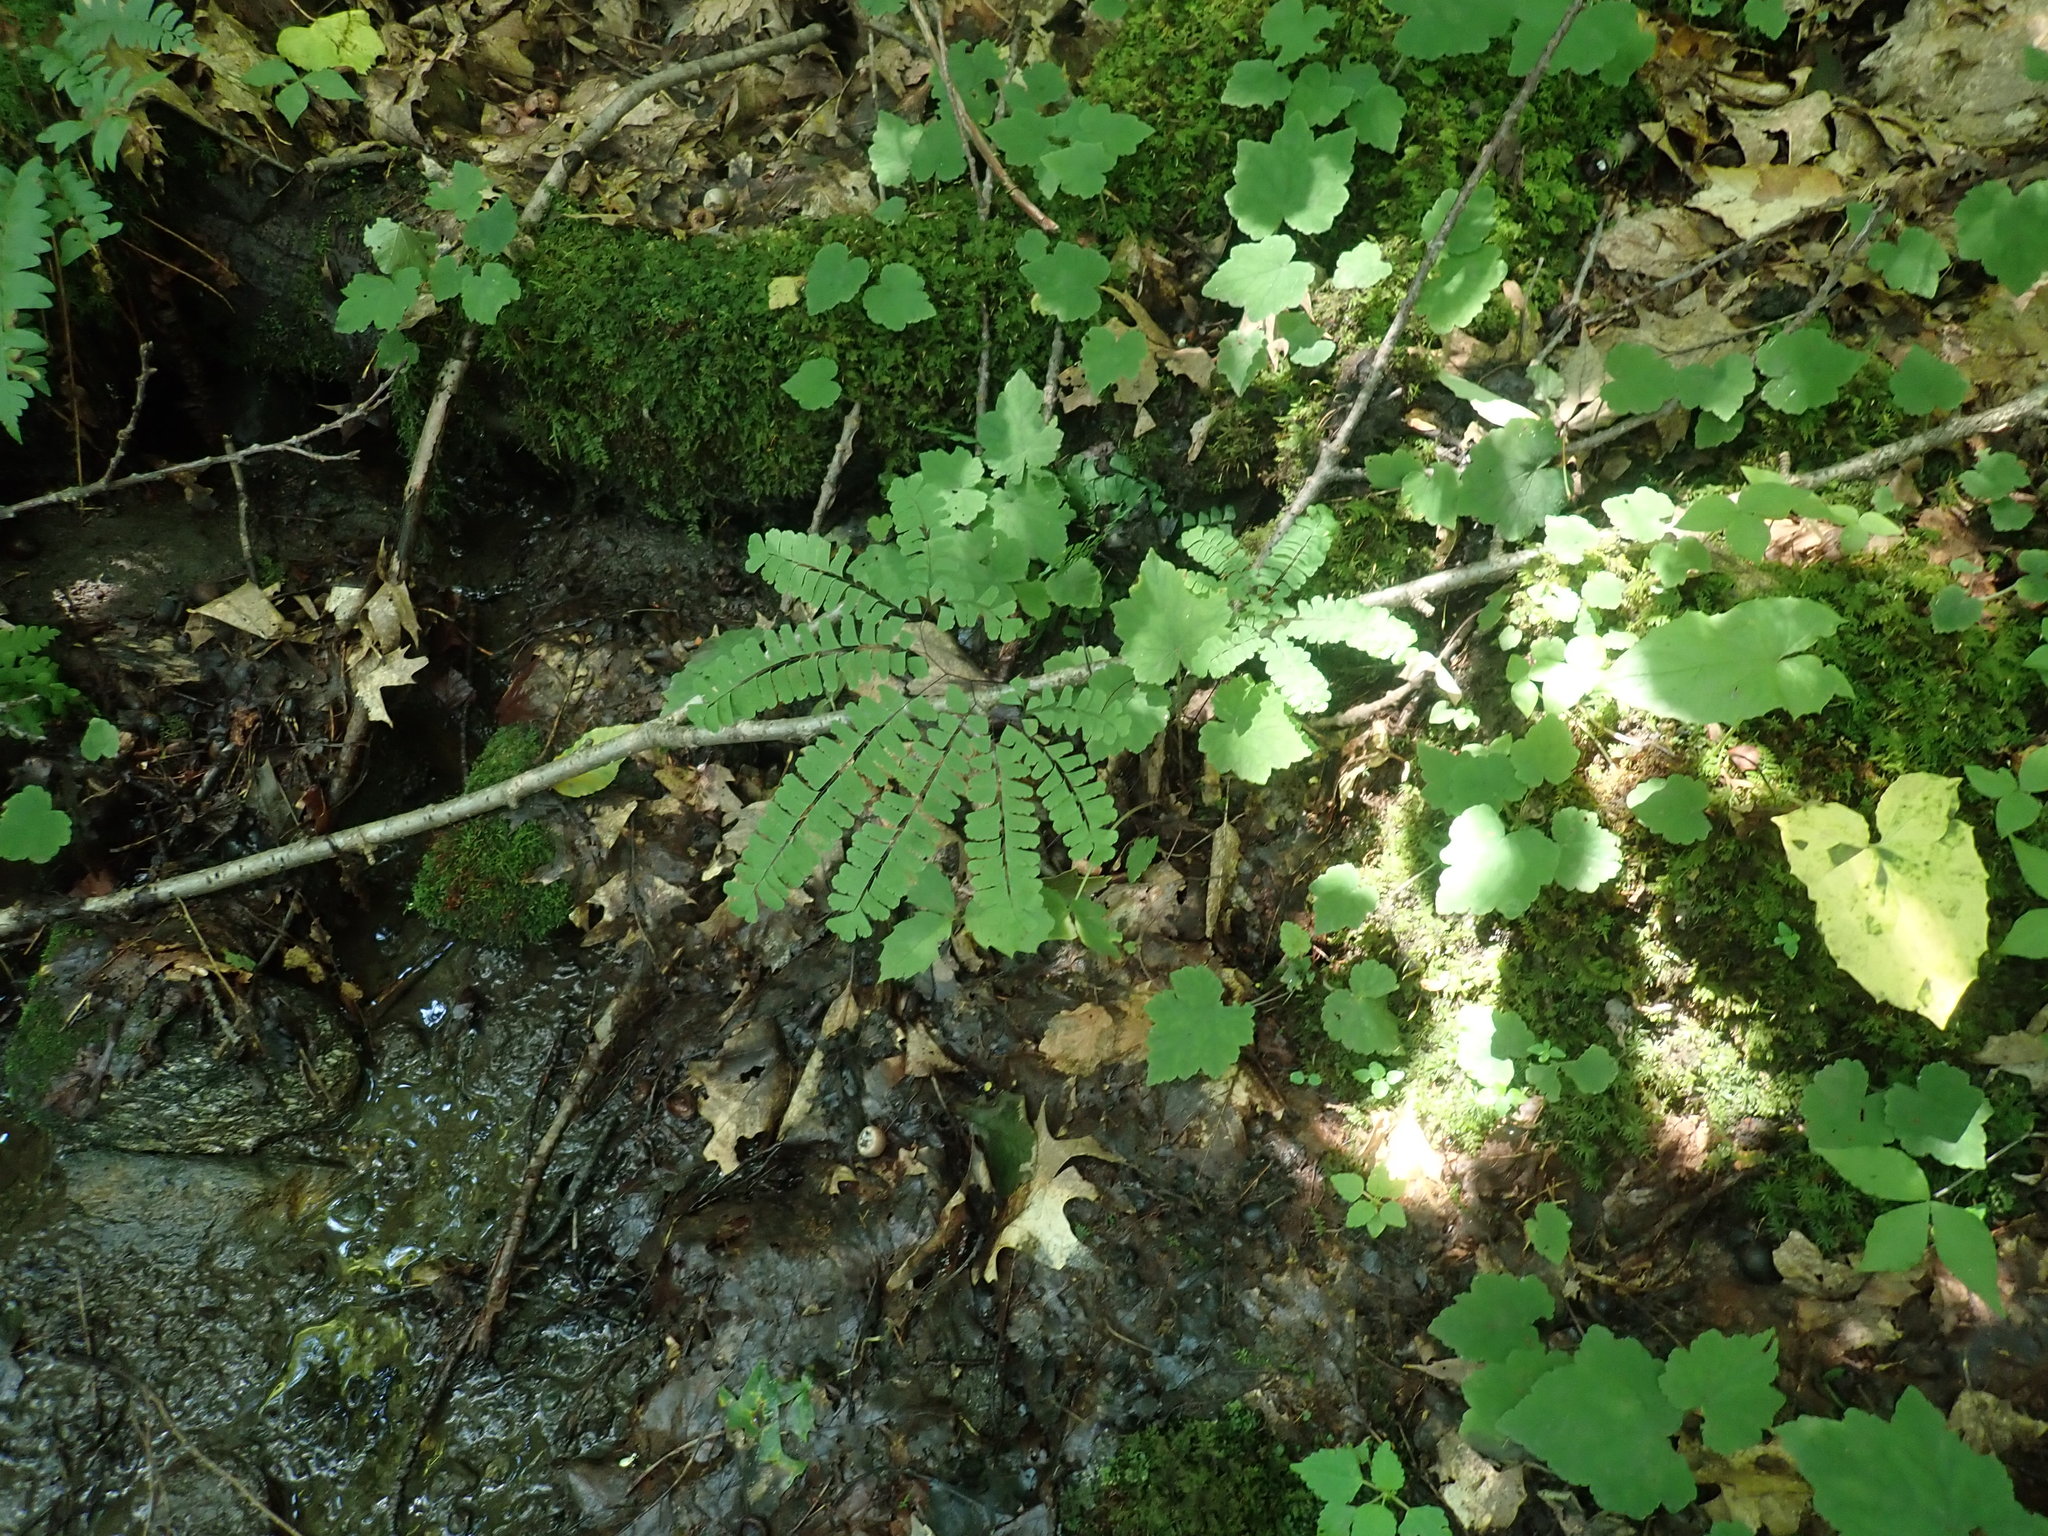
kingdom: Plantae
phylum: Tracheophyta
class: Polypodiopsida
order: Polypodiales
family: Pteridaceae
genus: Adiantum
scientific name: Adiantum pedatum
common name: Five-finger fern
